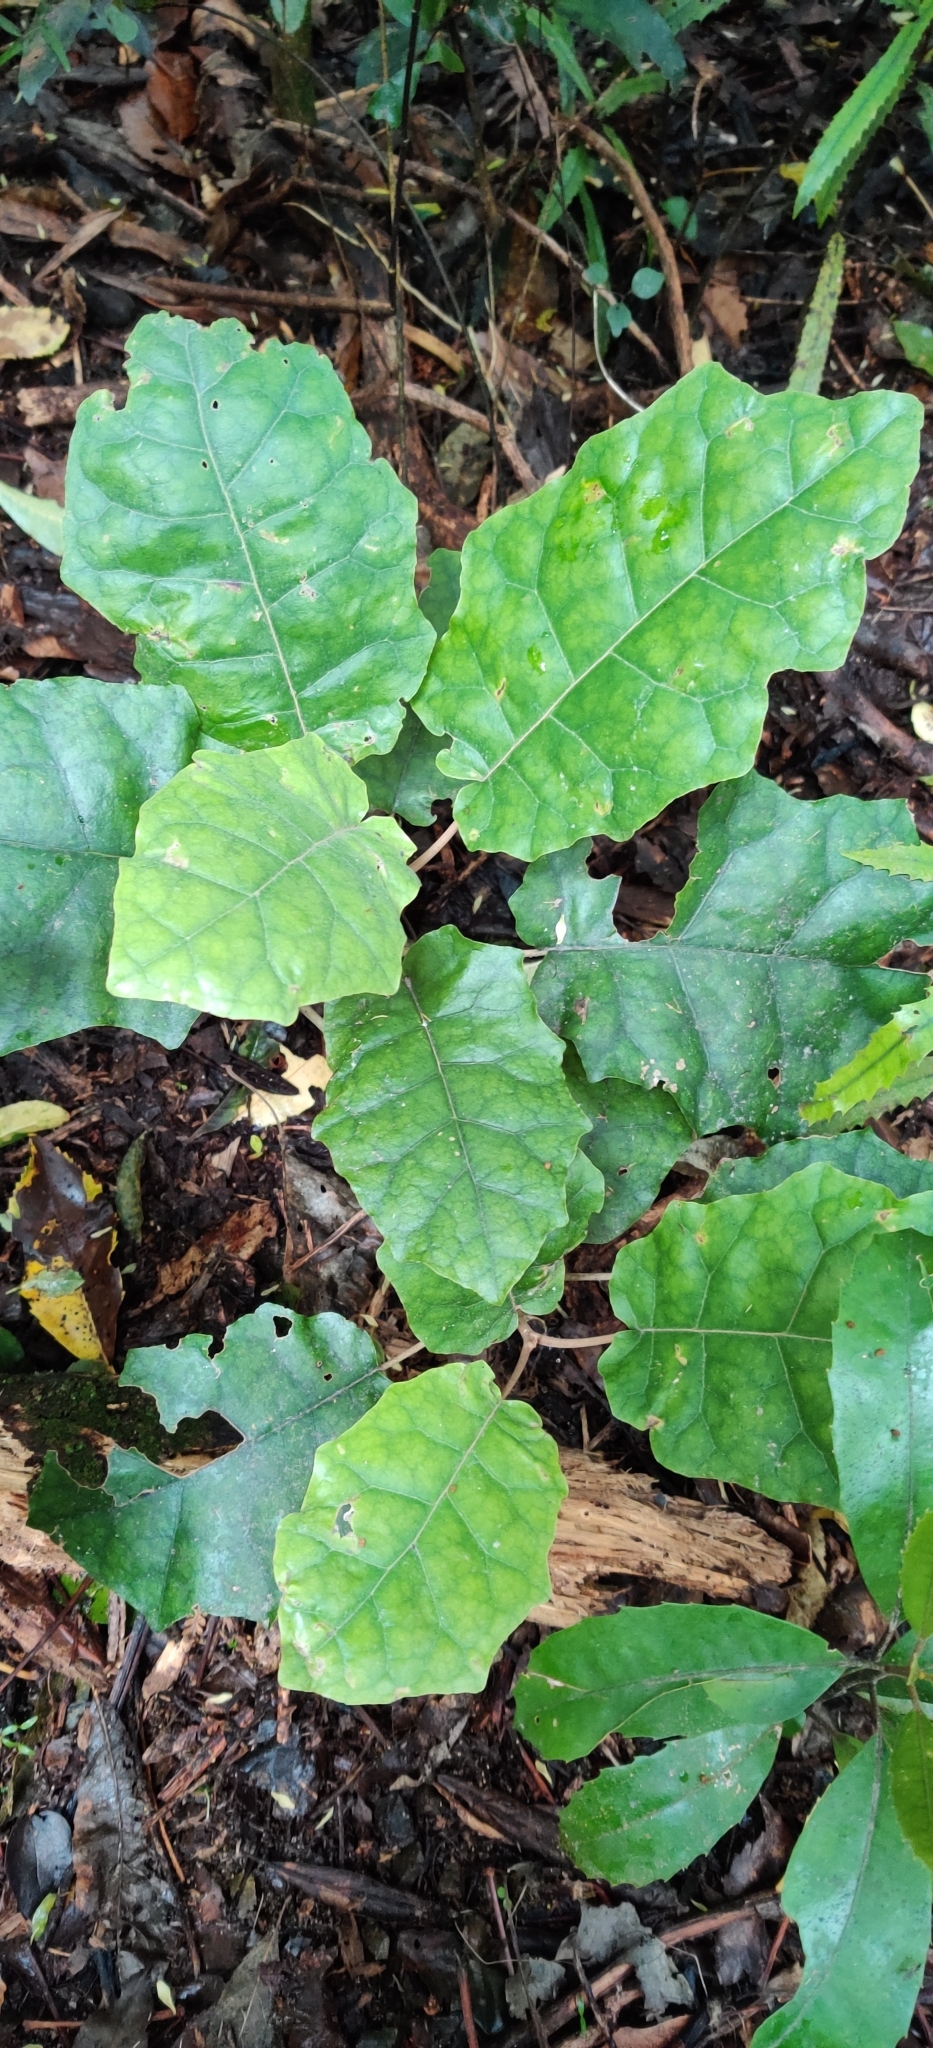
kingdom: Plantae
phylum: Tracheophyta
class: Magnoliopsida
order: Asterales
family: Asteraceae
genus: Brachyglottis
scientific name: Brachyglottis repanda
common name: Hedge ragwort
